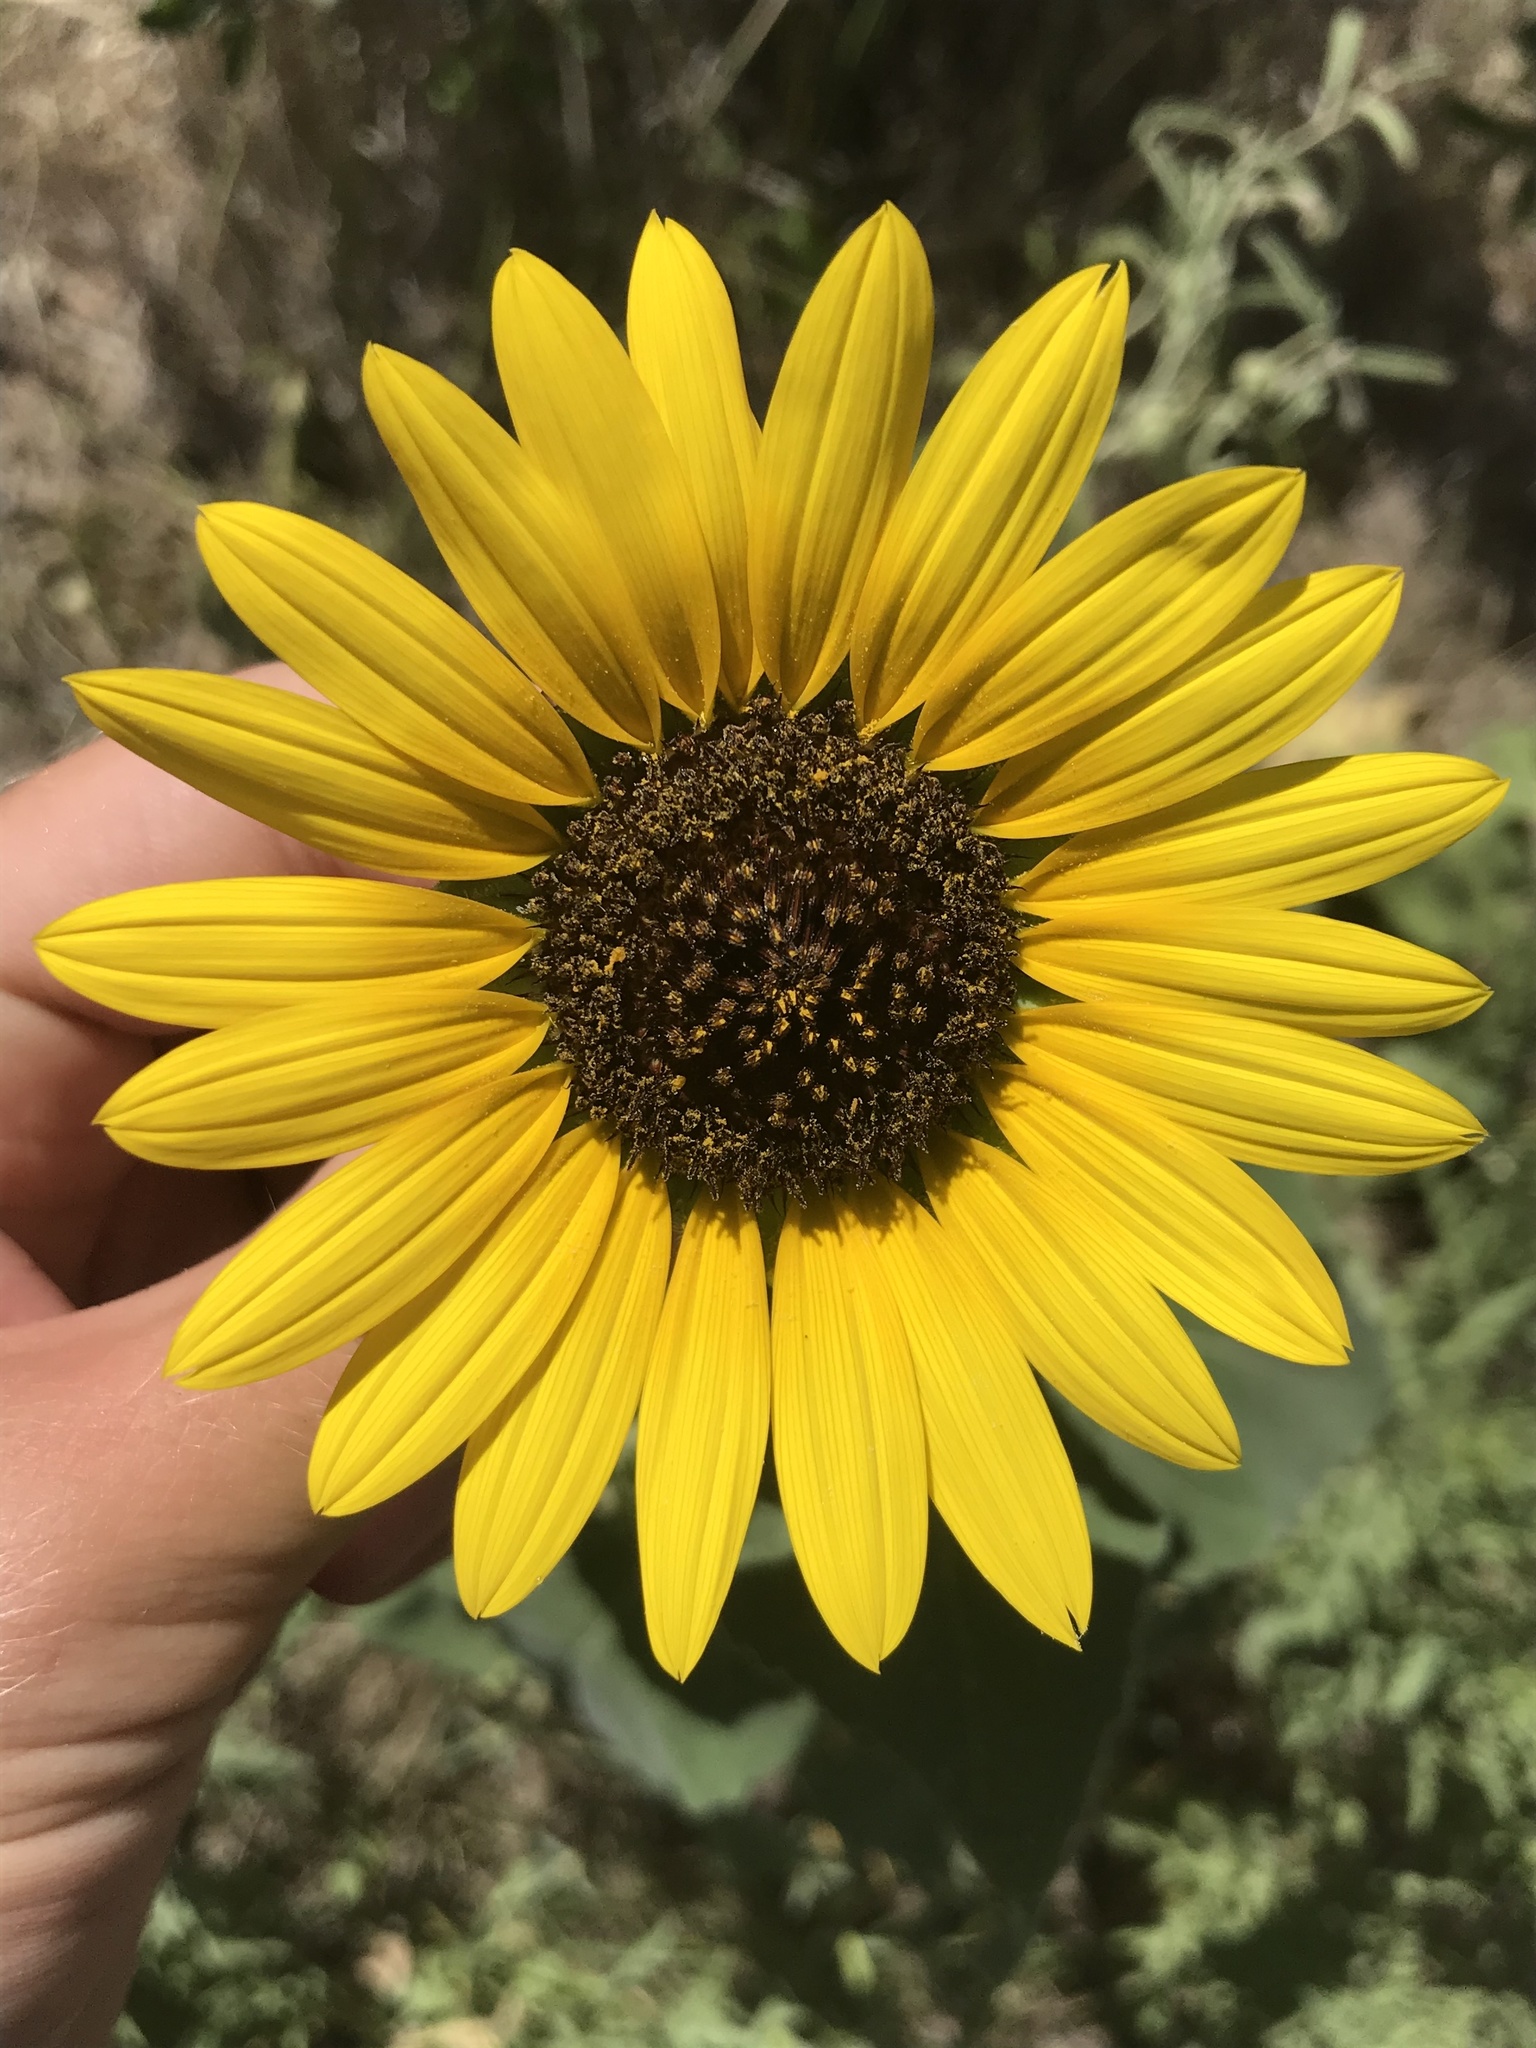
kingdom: Plantae
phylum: Tracheophyta
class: Magnoliopsida
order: Asterales
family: Asteraceae
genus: Helianthus
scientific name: Helianthus annuus
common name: Sunflower
